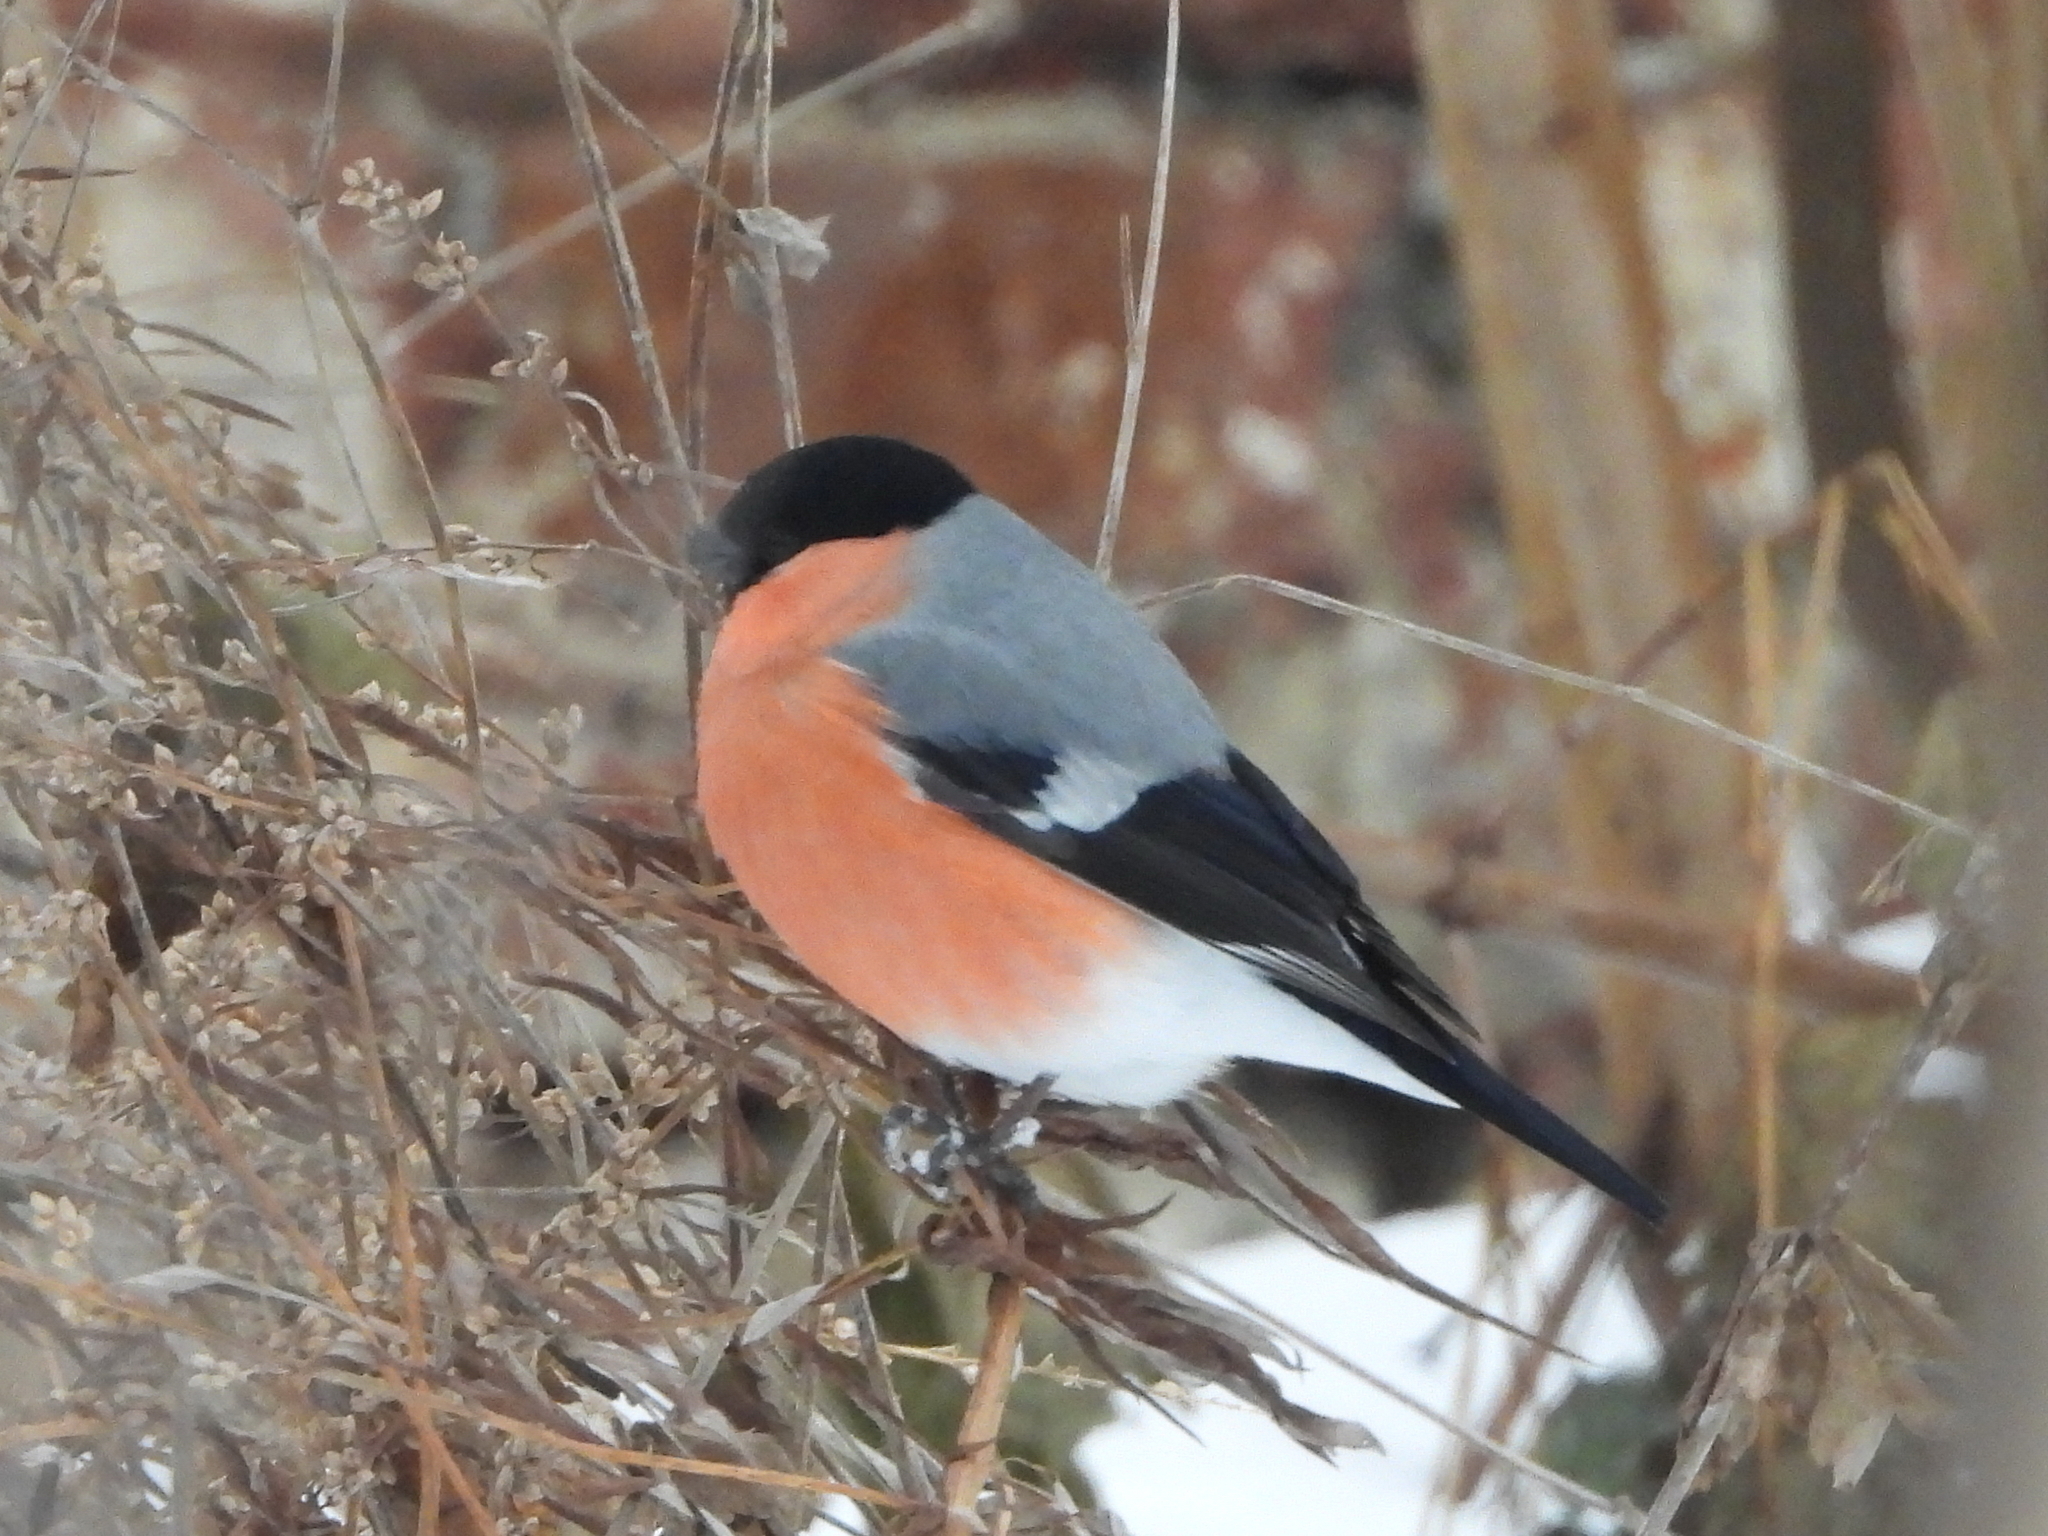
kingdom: Animalia
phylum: Chordata
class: Aves
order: Passeriformes
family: Fringillidae
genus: Pyrrhula
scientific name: Pyrrhula pyrrhula
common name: Eurasian bullfinch
